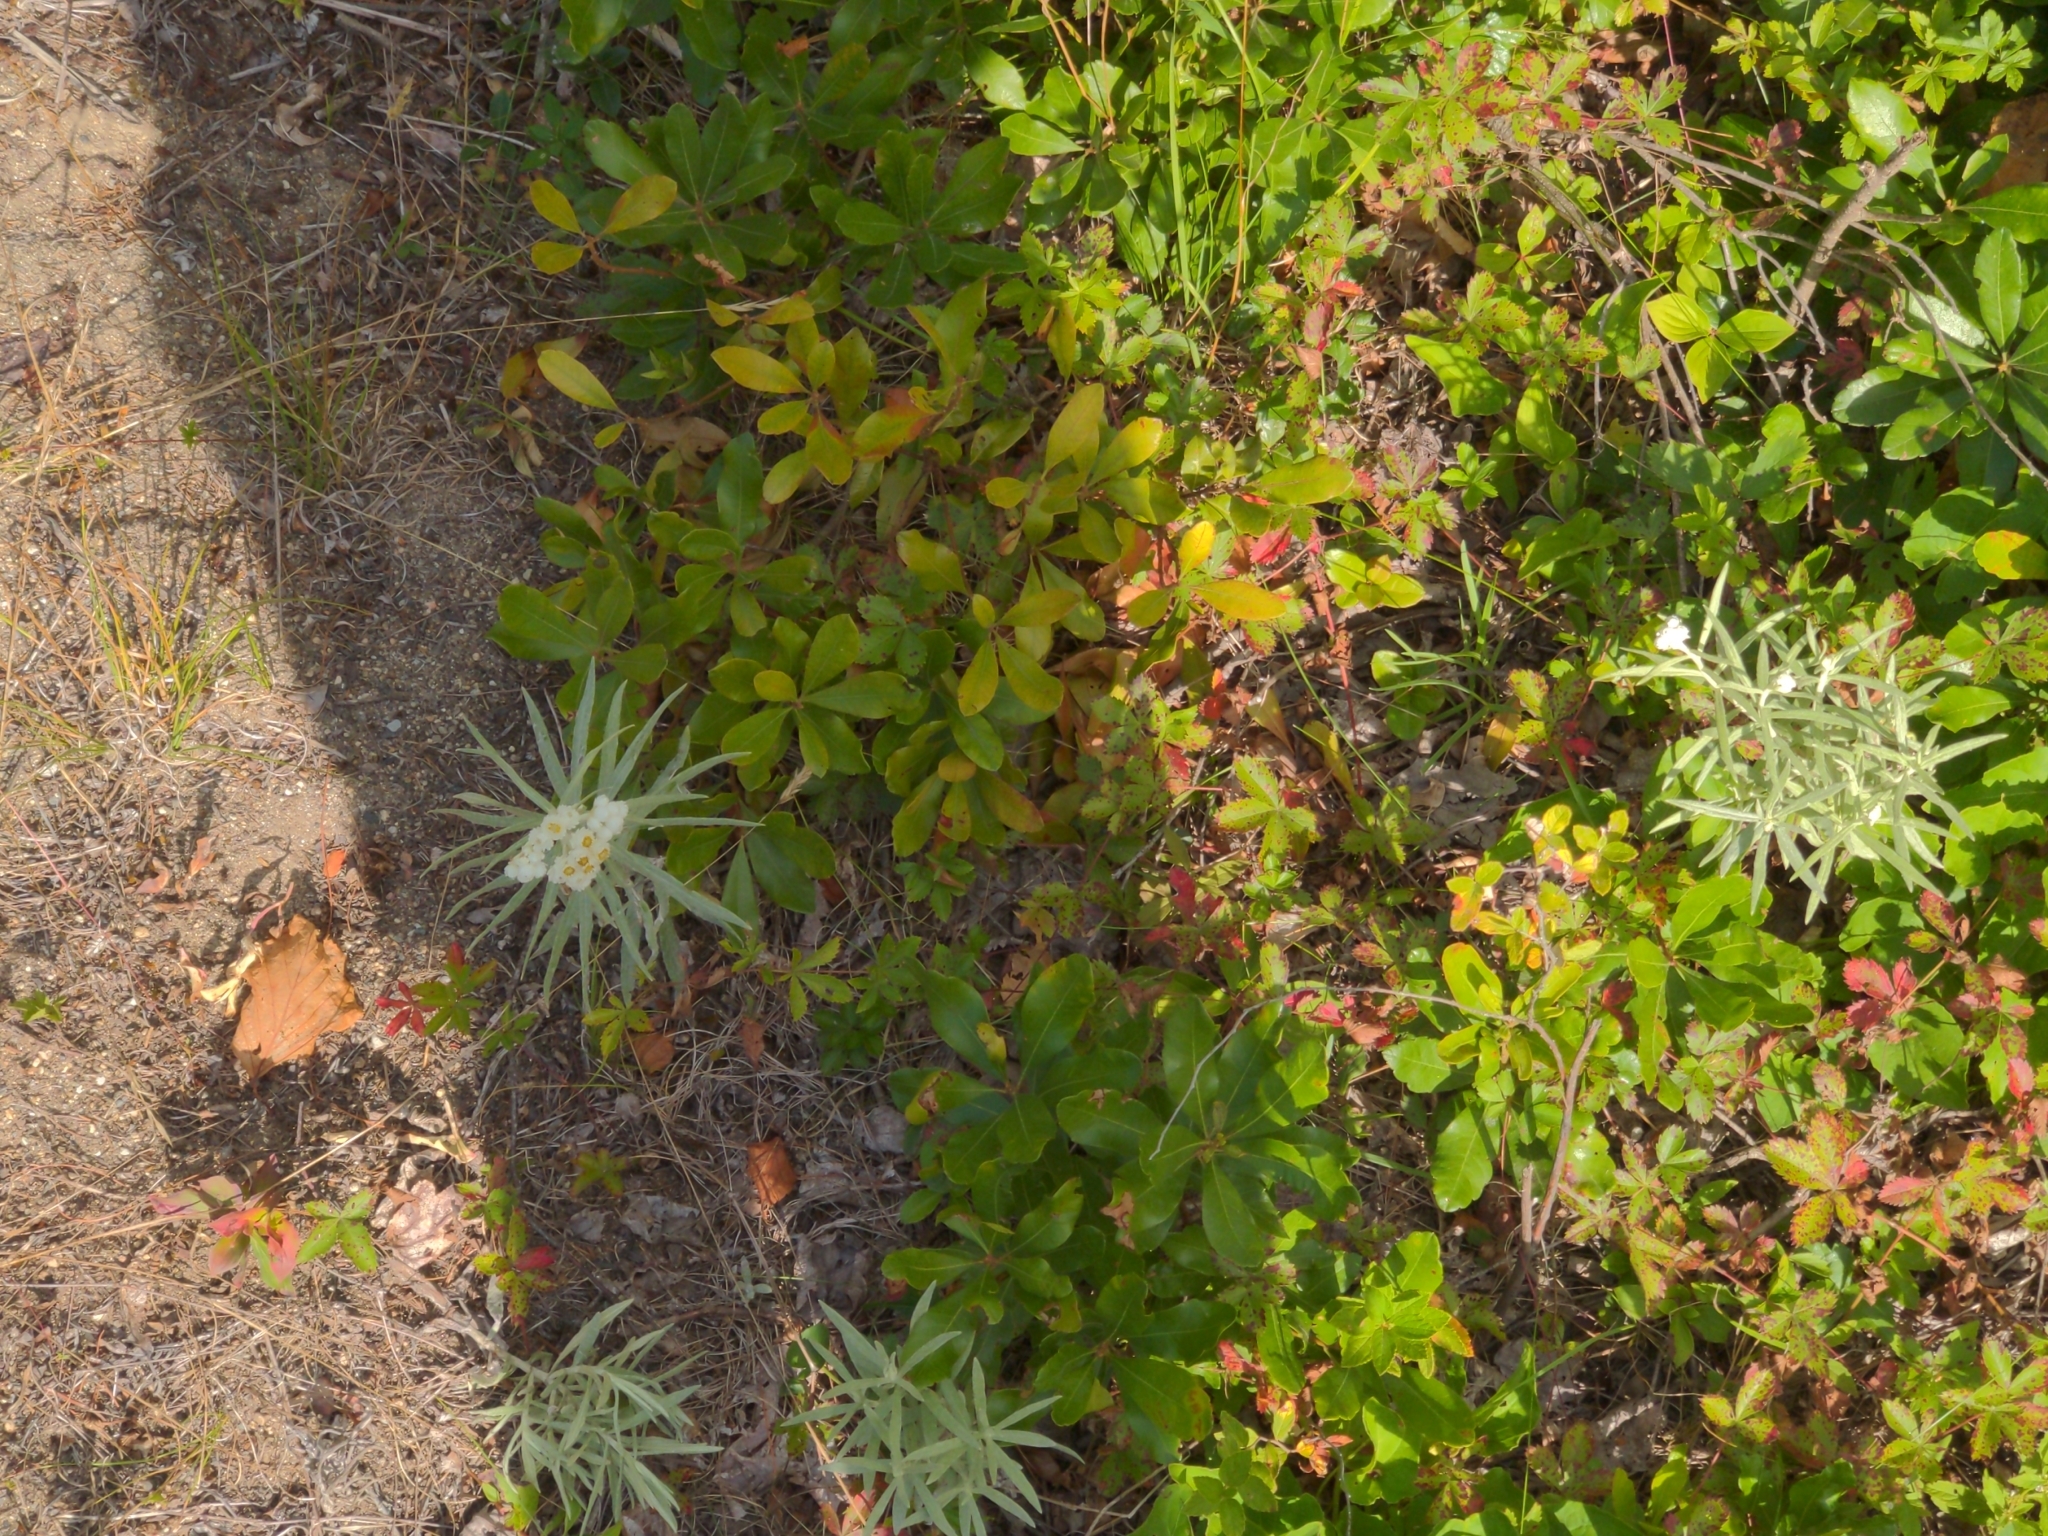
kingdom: Plantae
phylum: Tracheophyta
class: Magnoliopsida
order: Asterales
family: Asteraceae
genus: Anaphalis
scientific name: Anaphalis margaritacea
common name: Pearly everlasting
